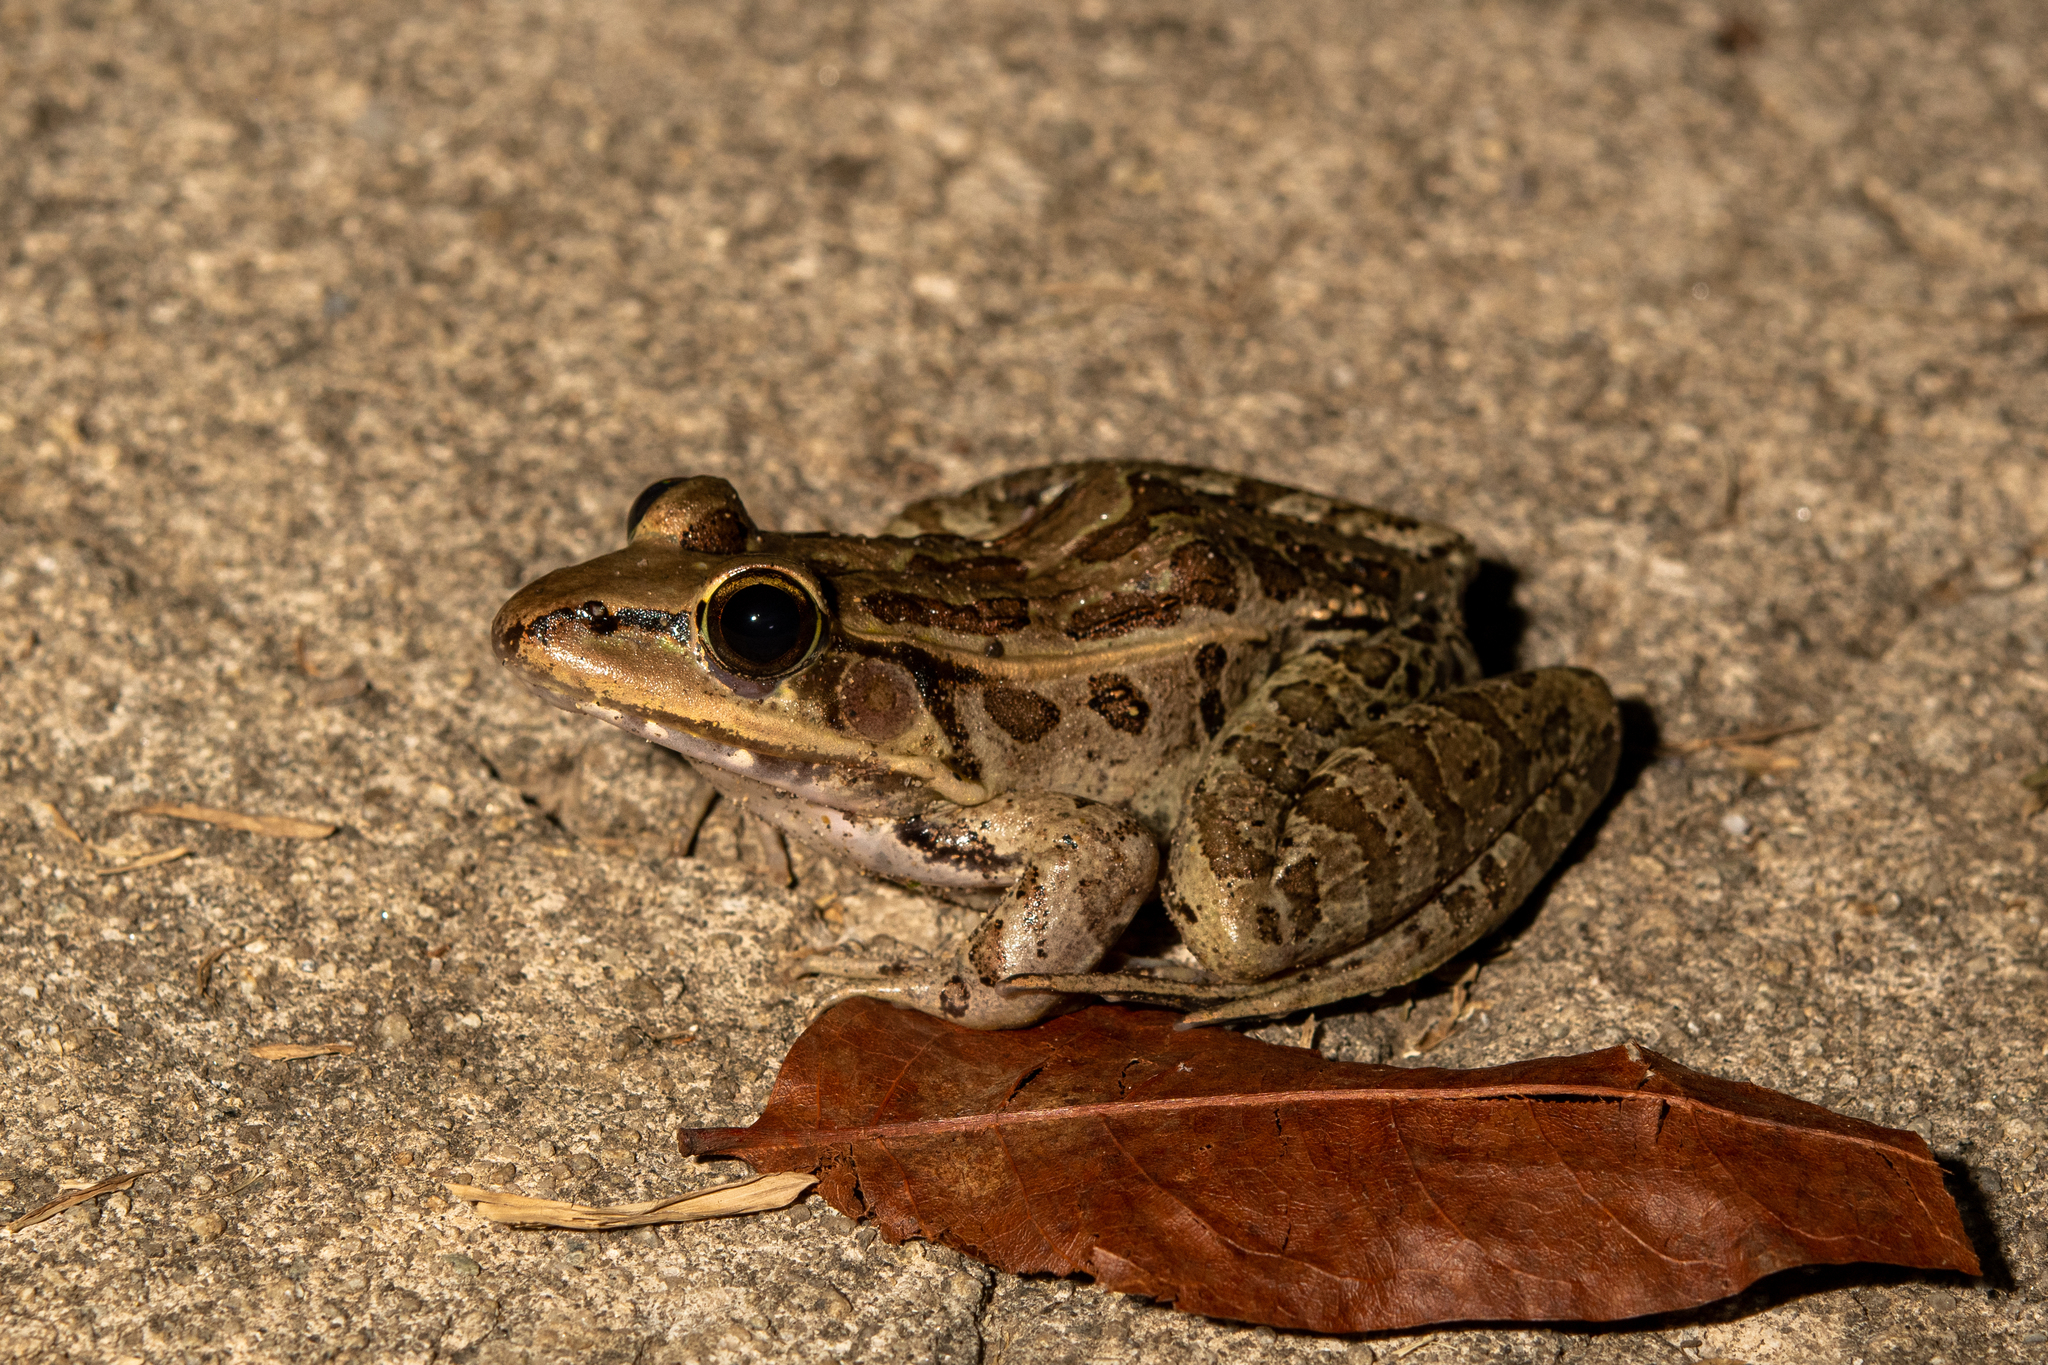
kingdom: Animalia
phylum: Chordata
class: Amphibia
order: Anura
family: Ranidae
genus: Lithobates
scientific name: Lithobates brownorum
